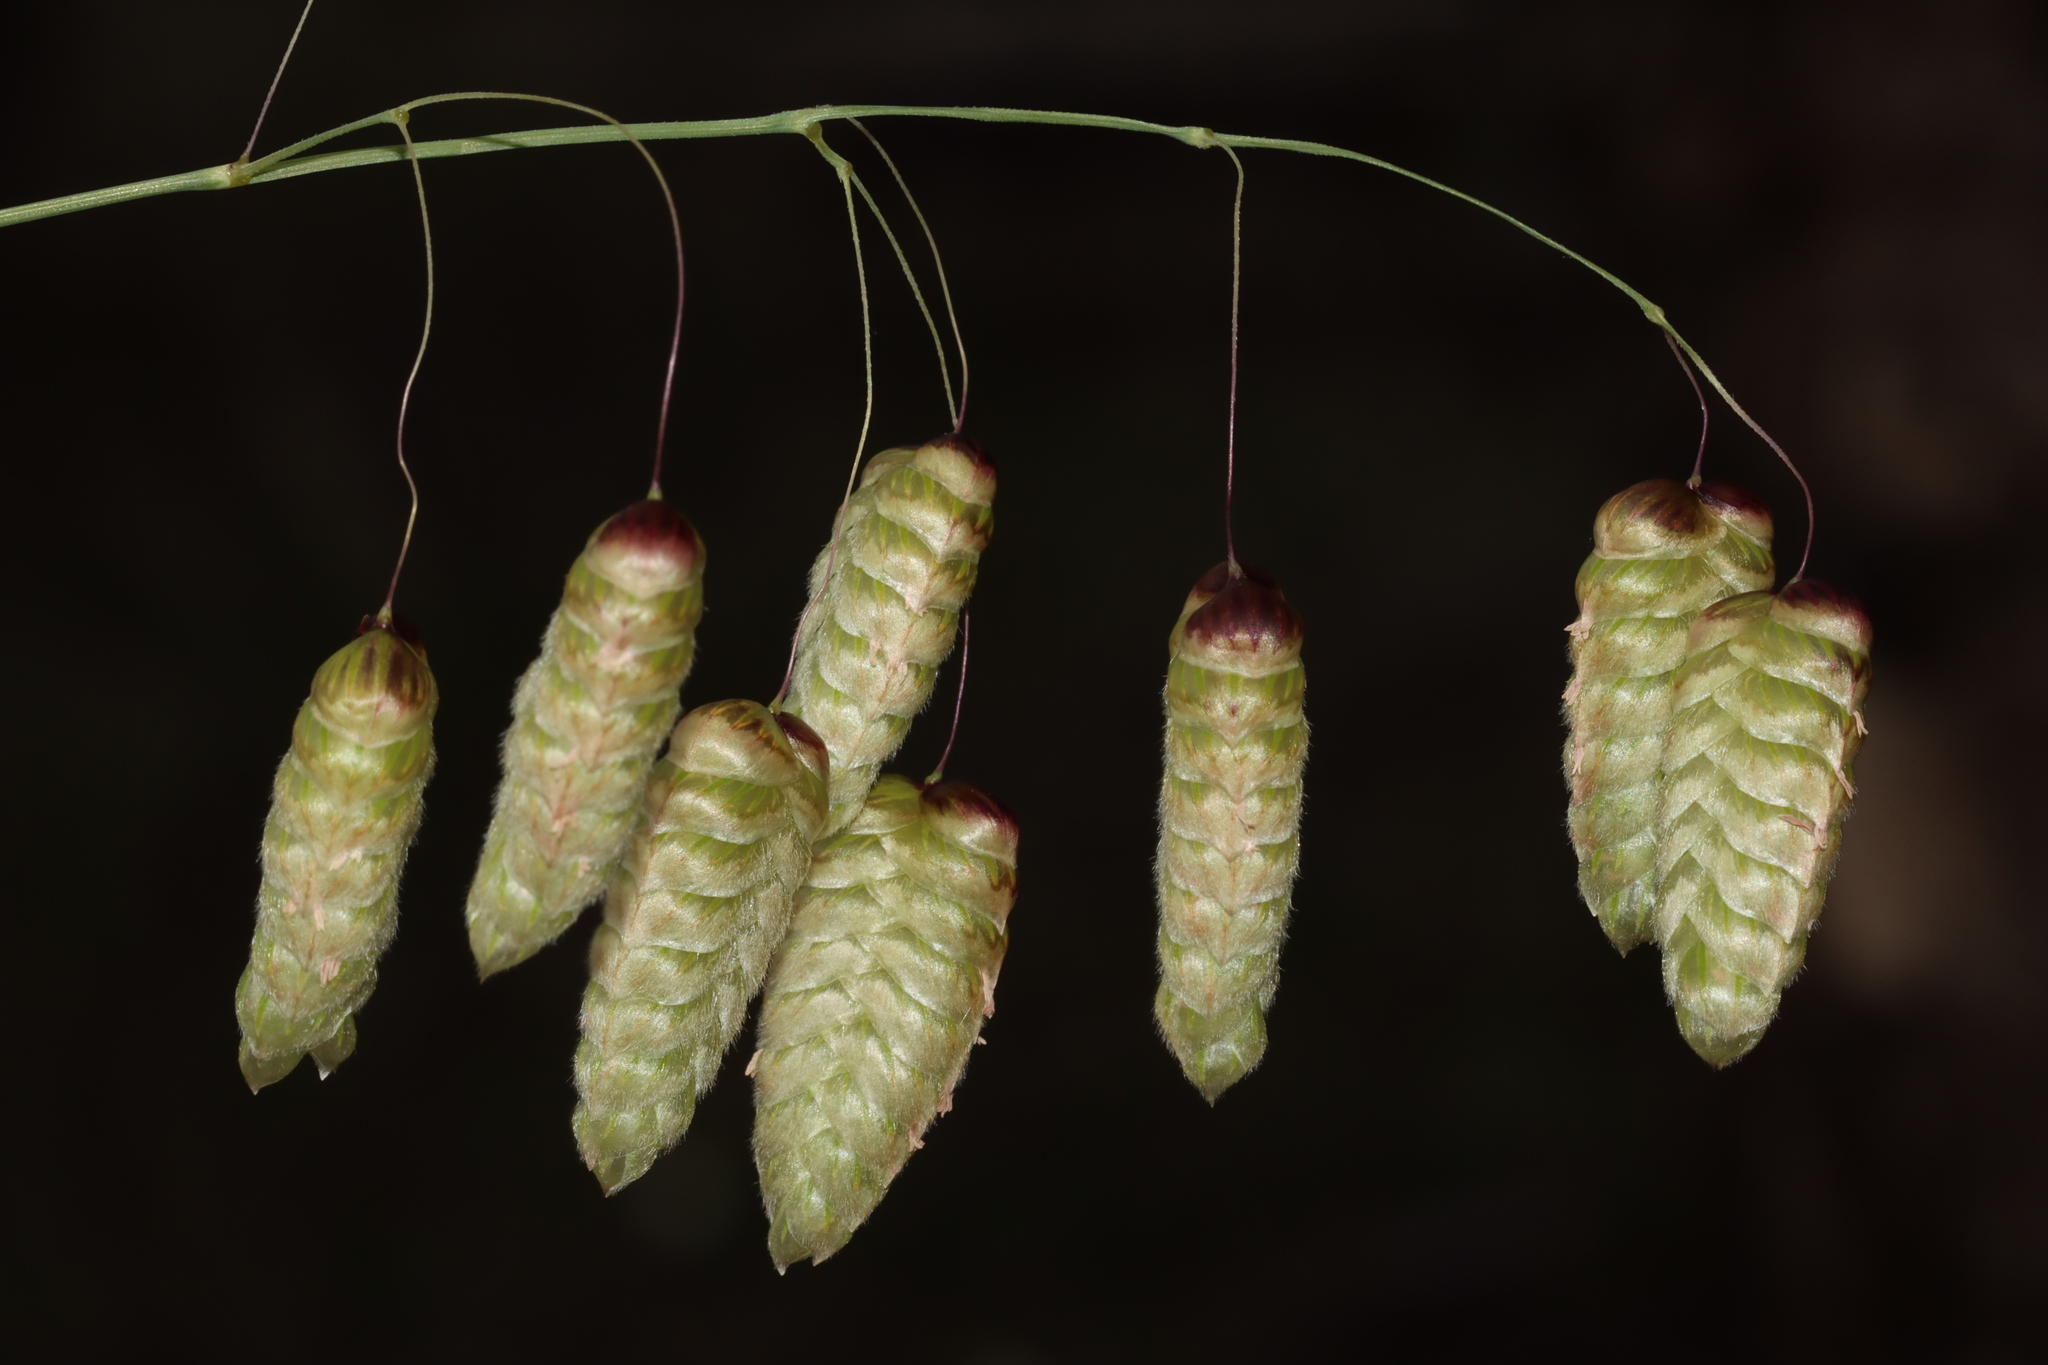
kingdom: Plantae
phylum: Tracheophyta
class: Liliopsida
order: Poales
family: Poaceae
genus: Briza
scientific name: Briza maxima
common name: Big quakinggrass
